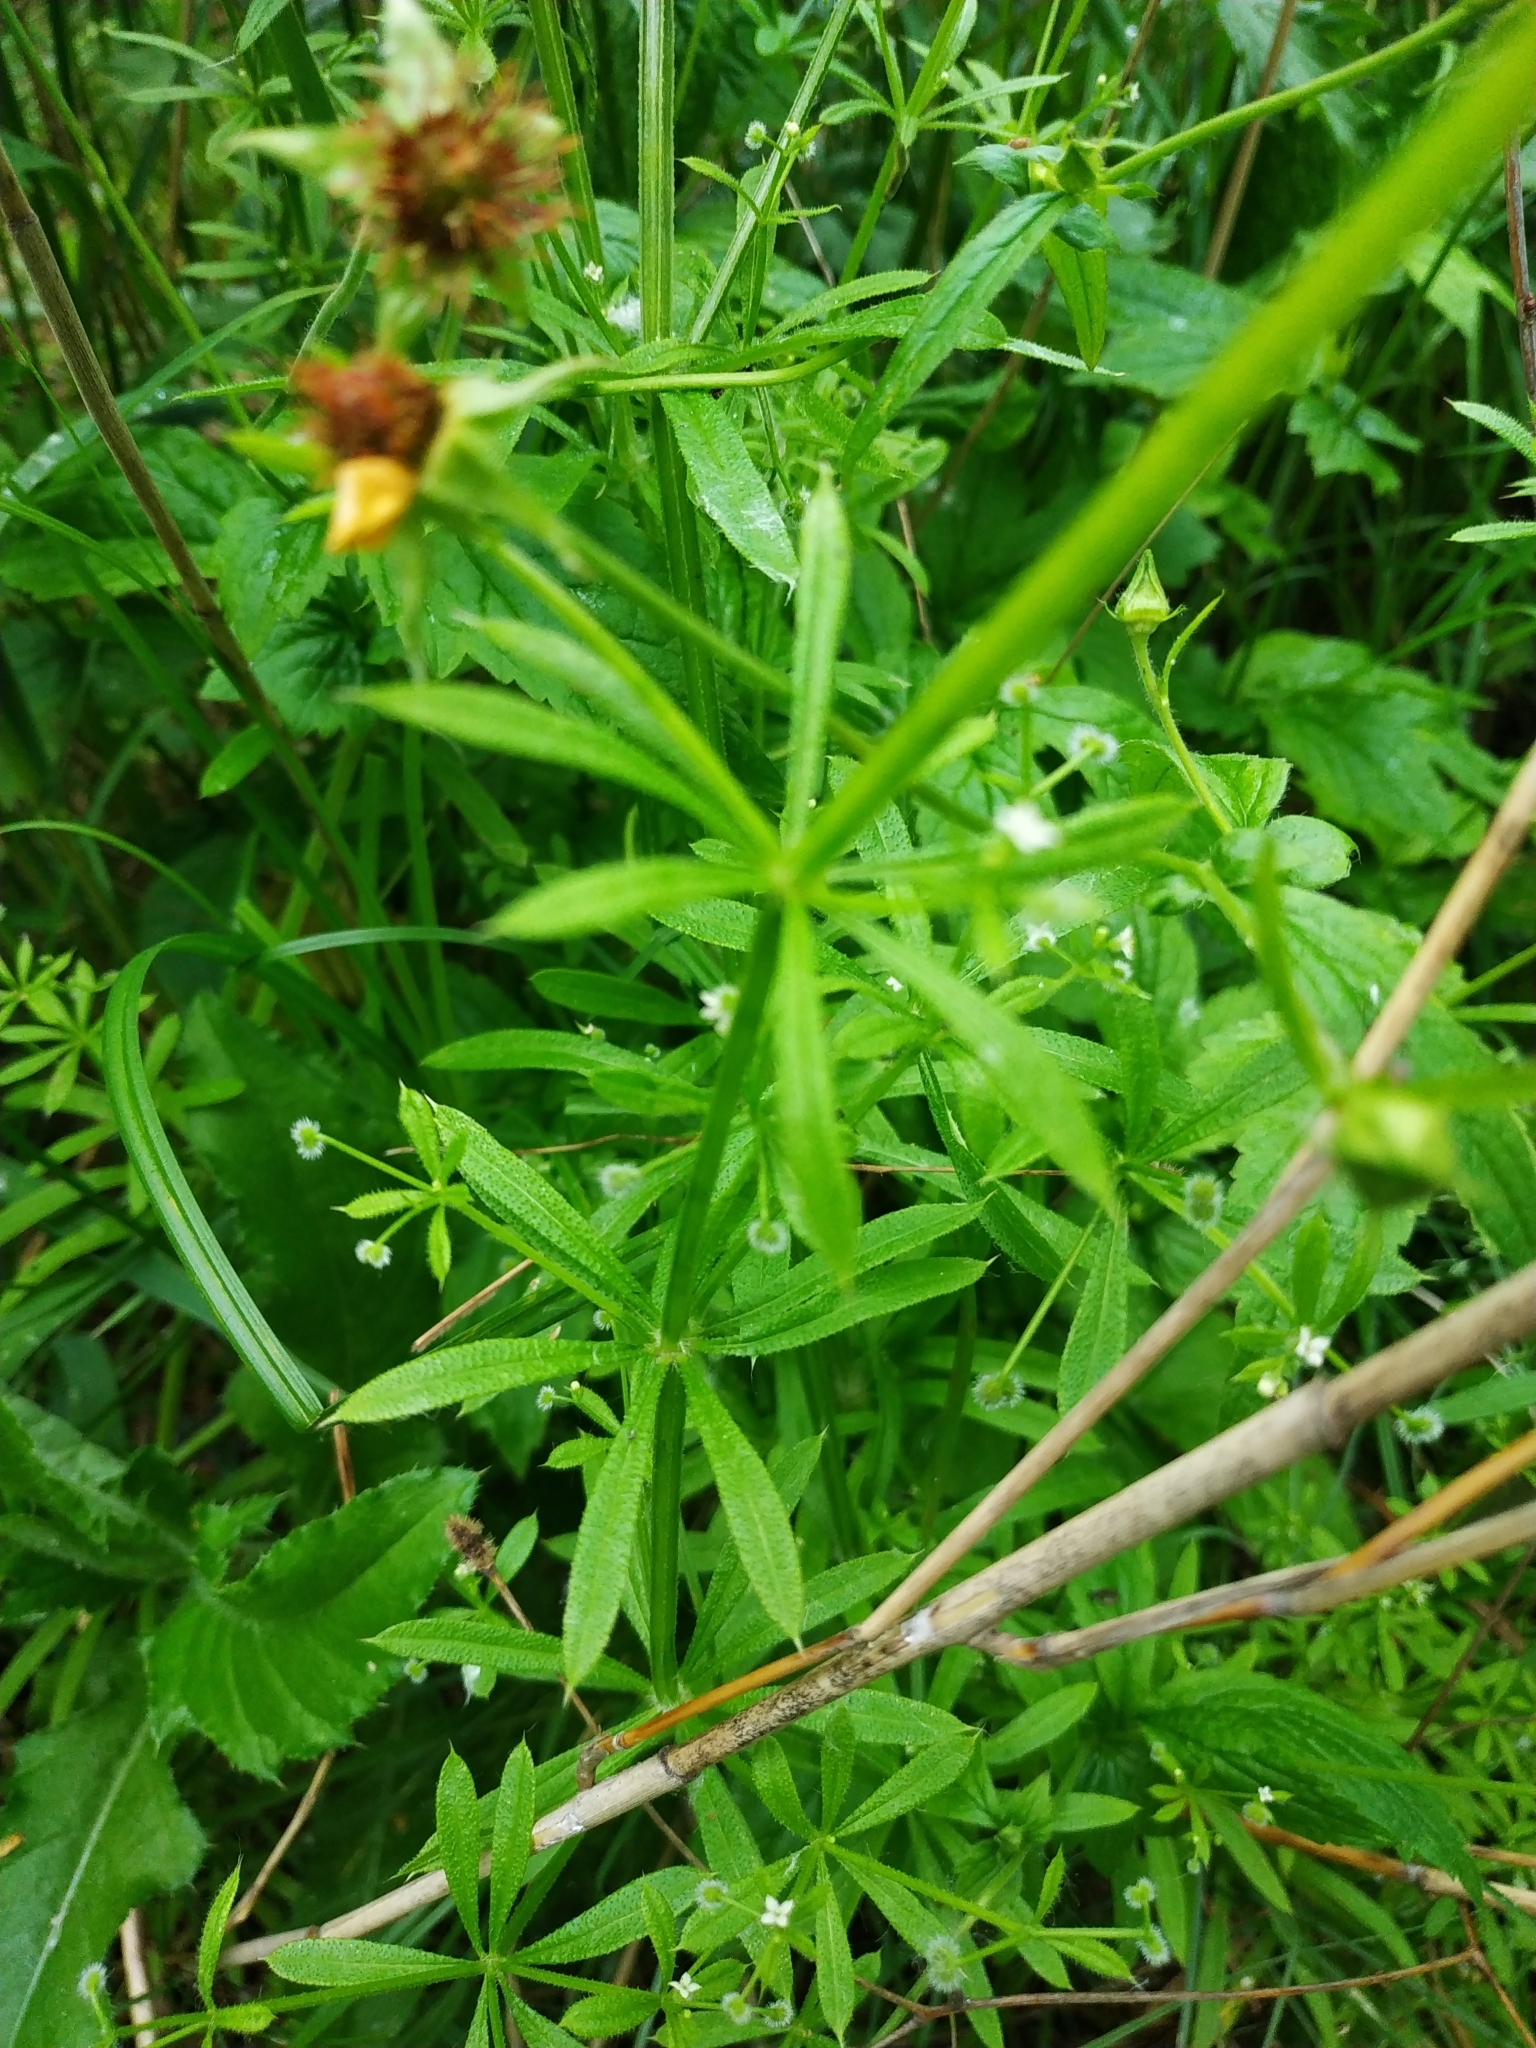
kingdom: Plantae
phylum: Tracheophyta
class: Magnoliopsida
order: Gentianales
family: Rubiaceae
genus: Galium
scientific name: Galium aparine
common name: Cleavers
